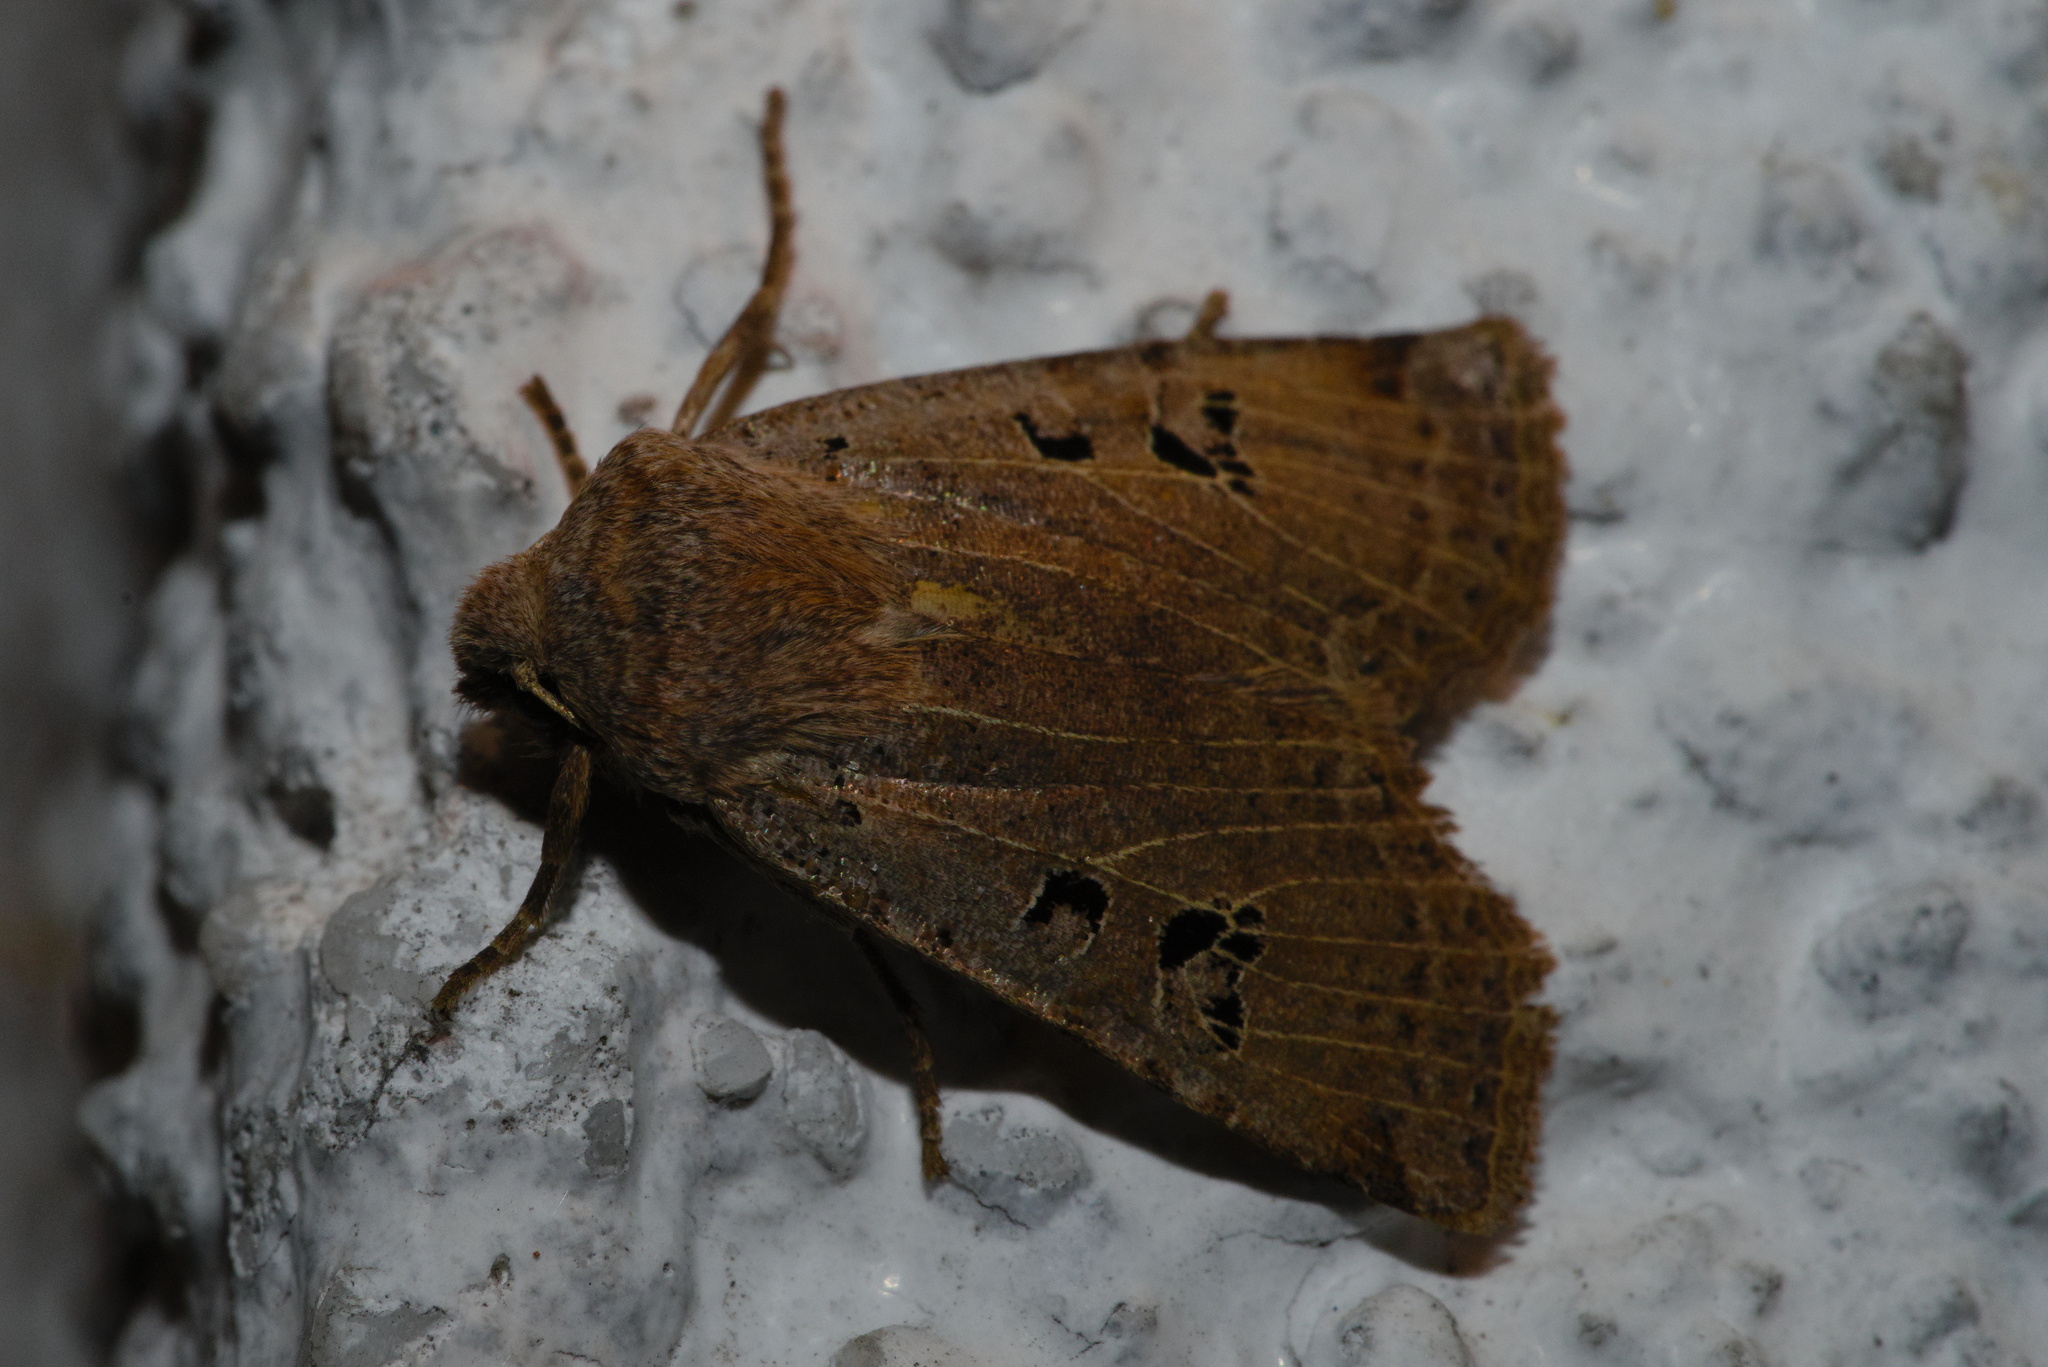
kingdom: Animalia
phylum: Arthropoda
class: Insecta
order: Lepidoptera
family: Noctuidae
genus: Conistra
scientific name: Conistra rubiginosa
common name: Black-spotted chestnut
